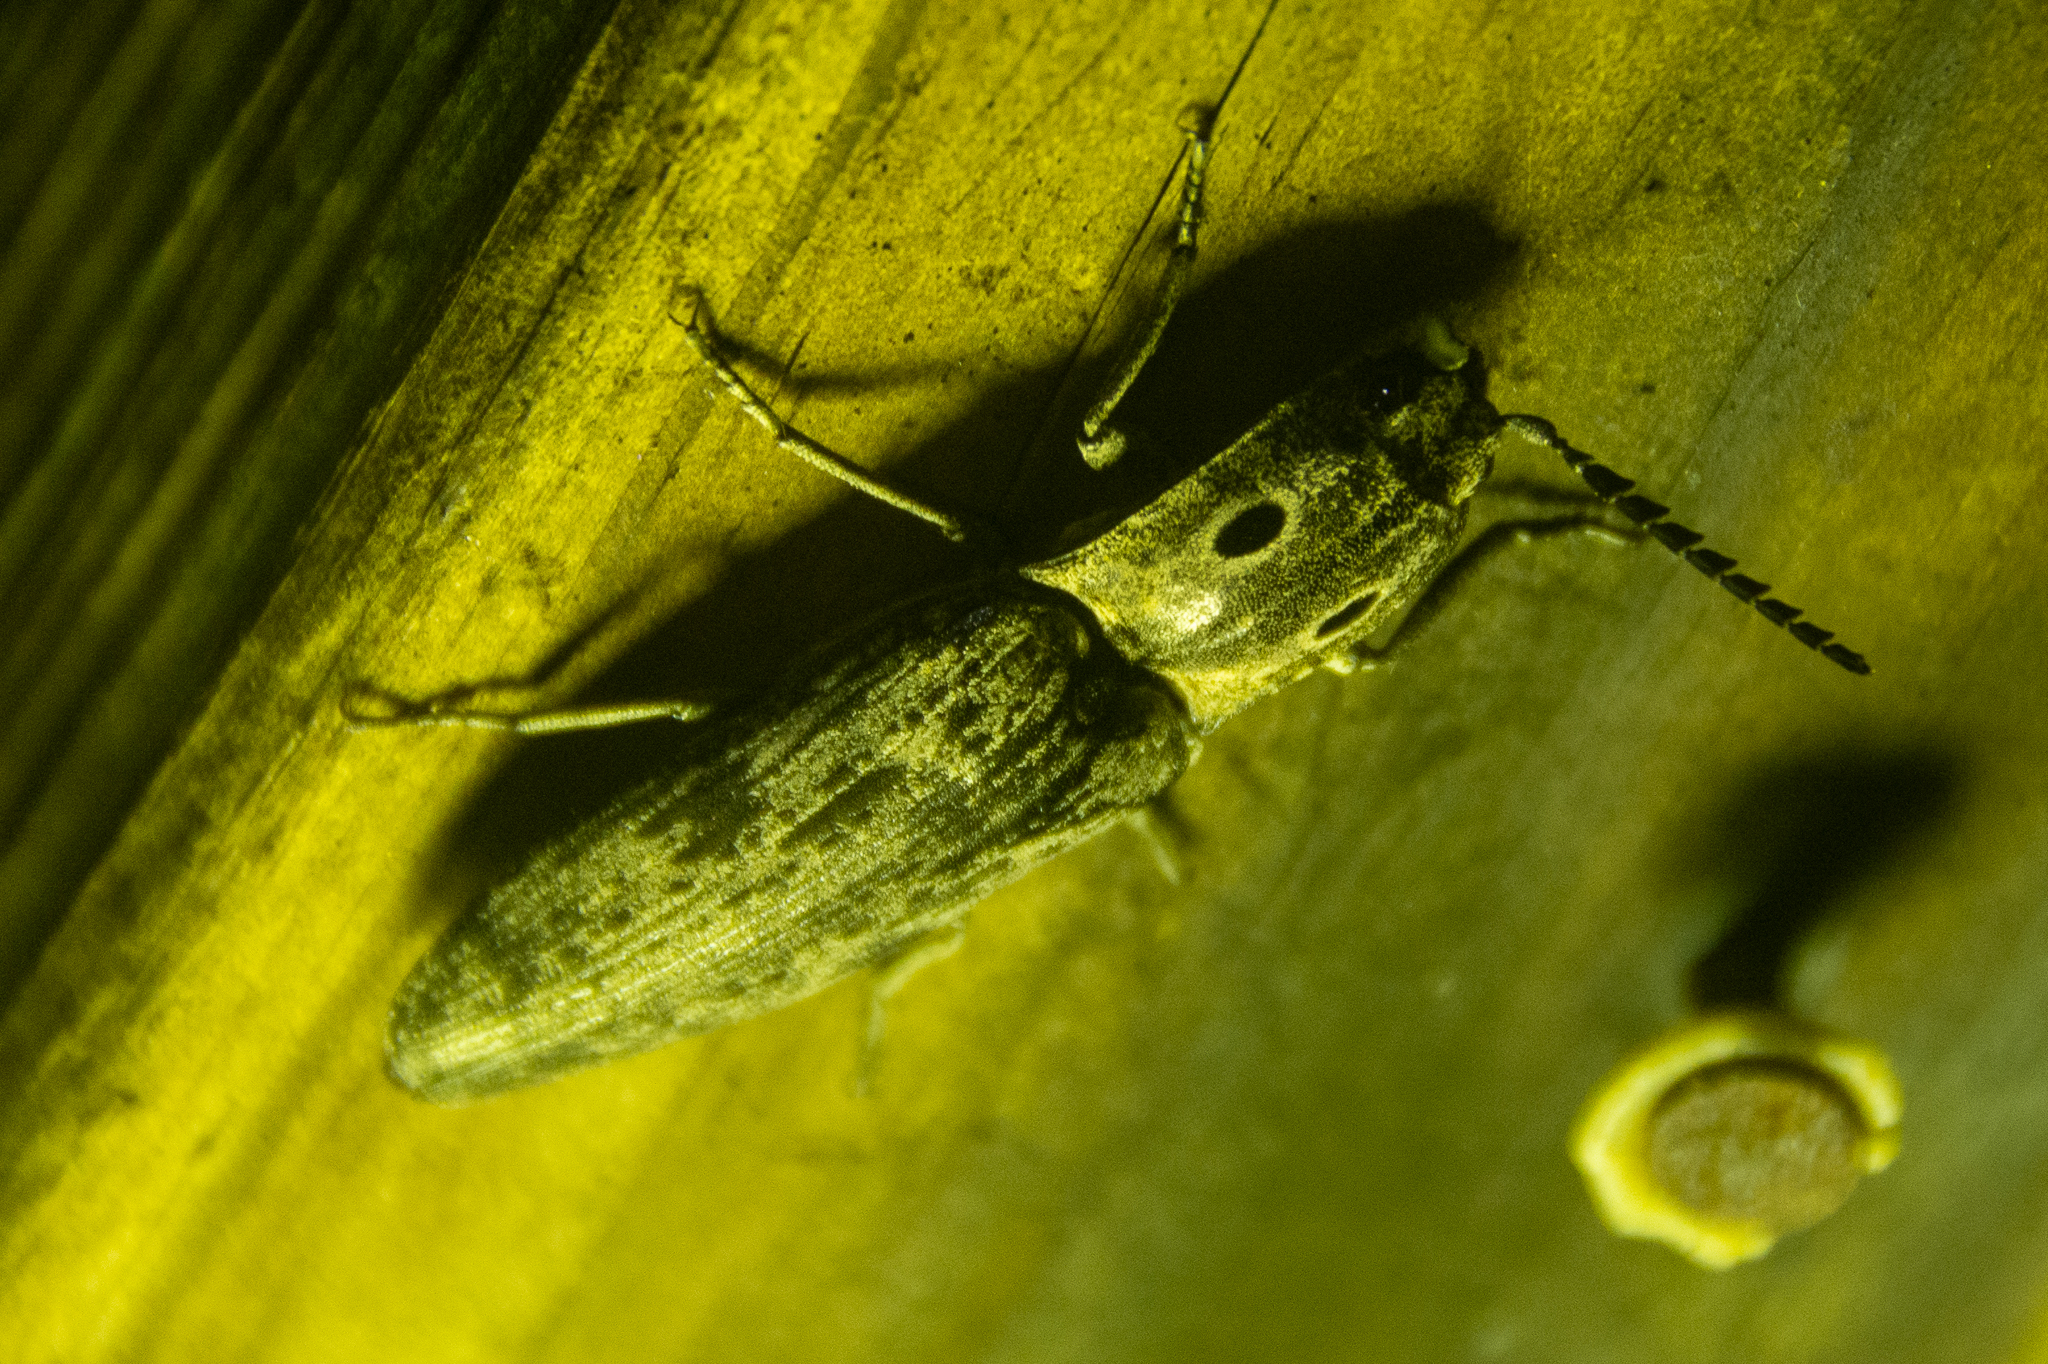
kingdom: Animalia
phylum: Arthropoda
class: Insecta
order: Coleoptera
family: Elateridae
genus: Alaus
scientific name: Alaus myops
